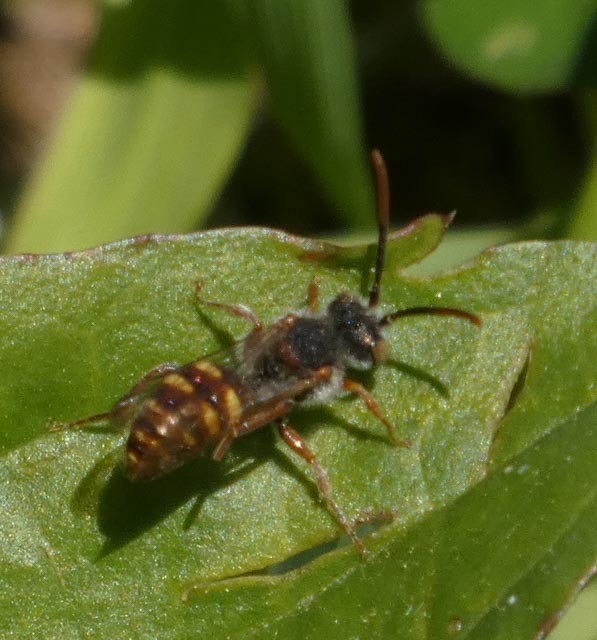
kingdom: Animalia
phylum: Arthropoda
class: Insecta
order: Hymenoptera
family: Apidae
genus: Nomada
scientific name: Nomada
